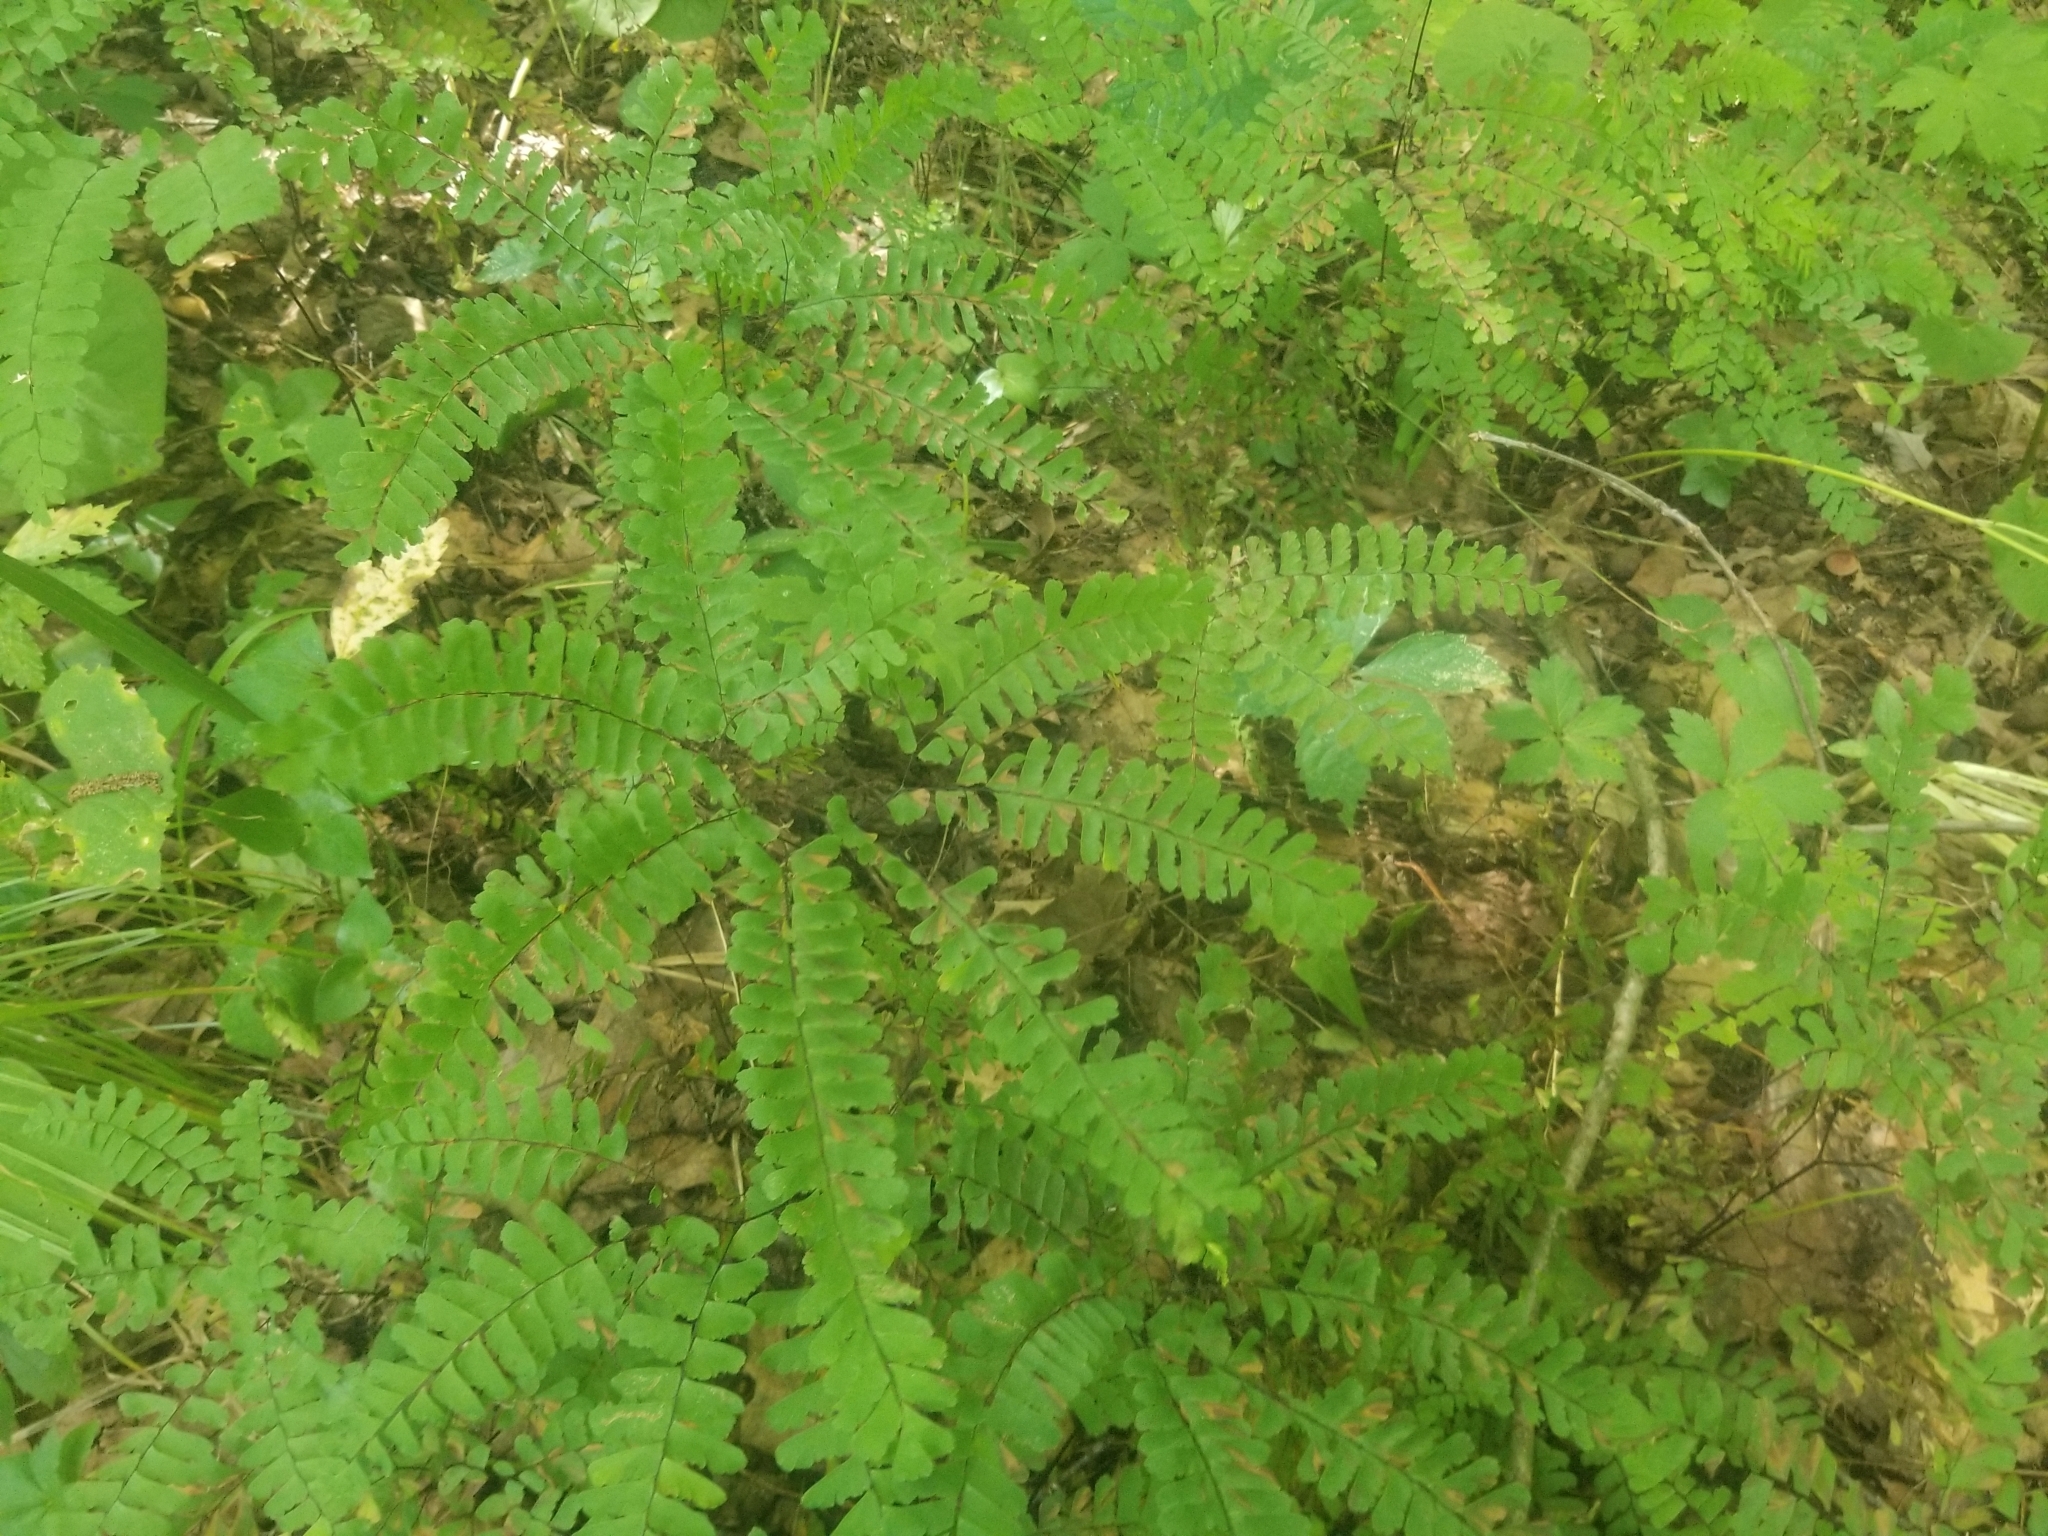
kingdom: Plantae
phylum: Tracheophyta
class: Polypodiopsida
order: Polypodiales
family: Pteridaceae
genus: Adiantum
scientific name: Adiantum pedatum
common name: Five-finger fern
